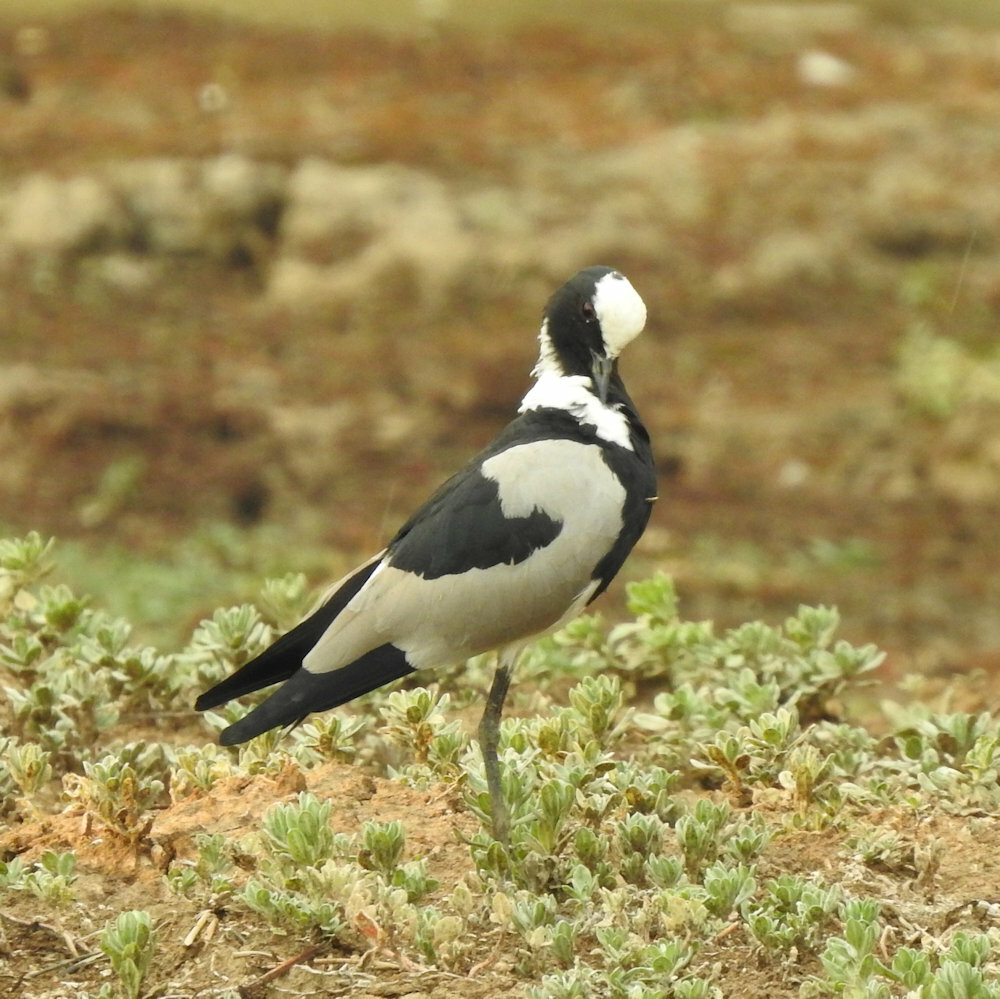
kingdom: Animalia
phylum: Chordata
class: Aves
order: Charadriiformes
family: Charadriidae
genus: Vanellus
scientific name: Vanellus armatus
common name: Blacksmith lapwing
